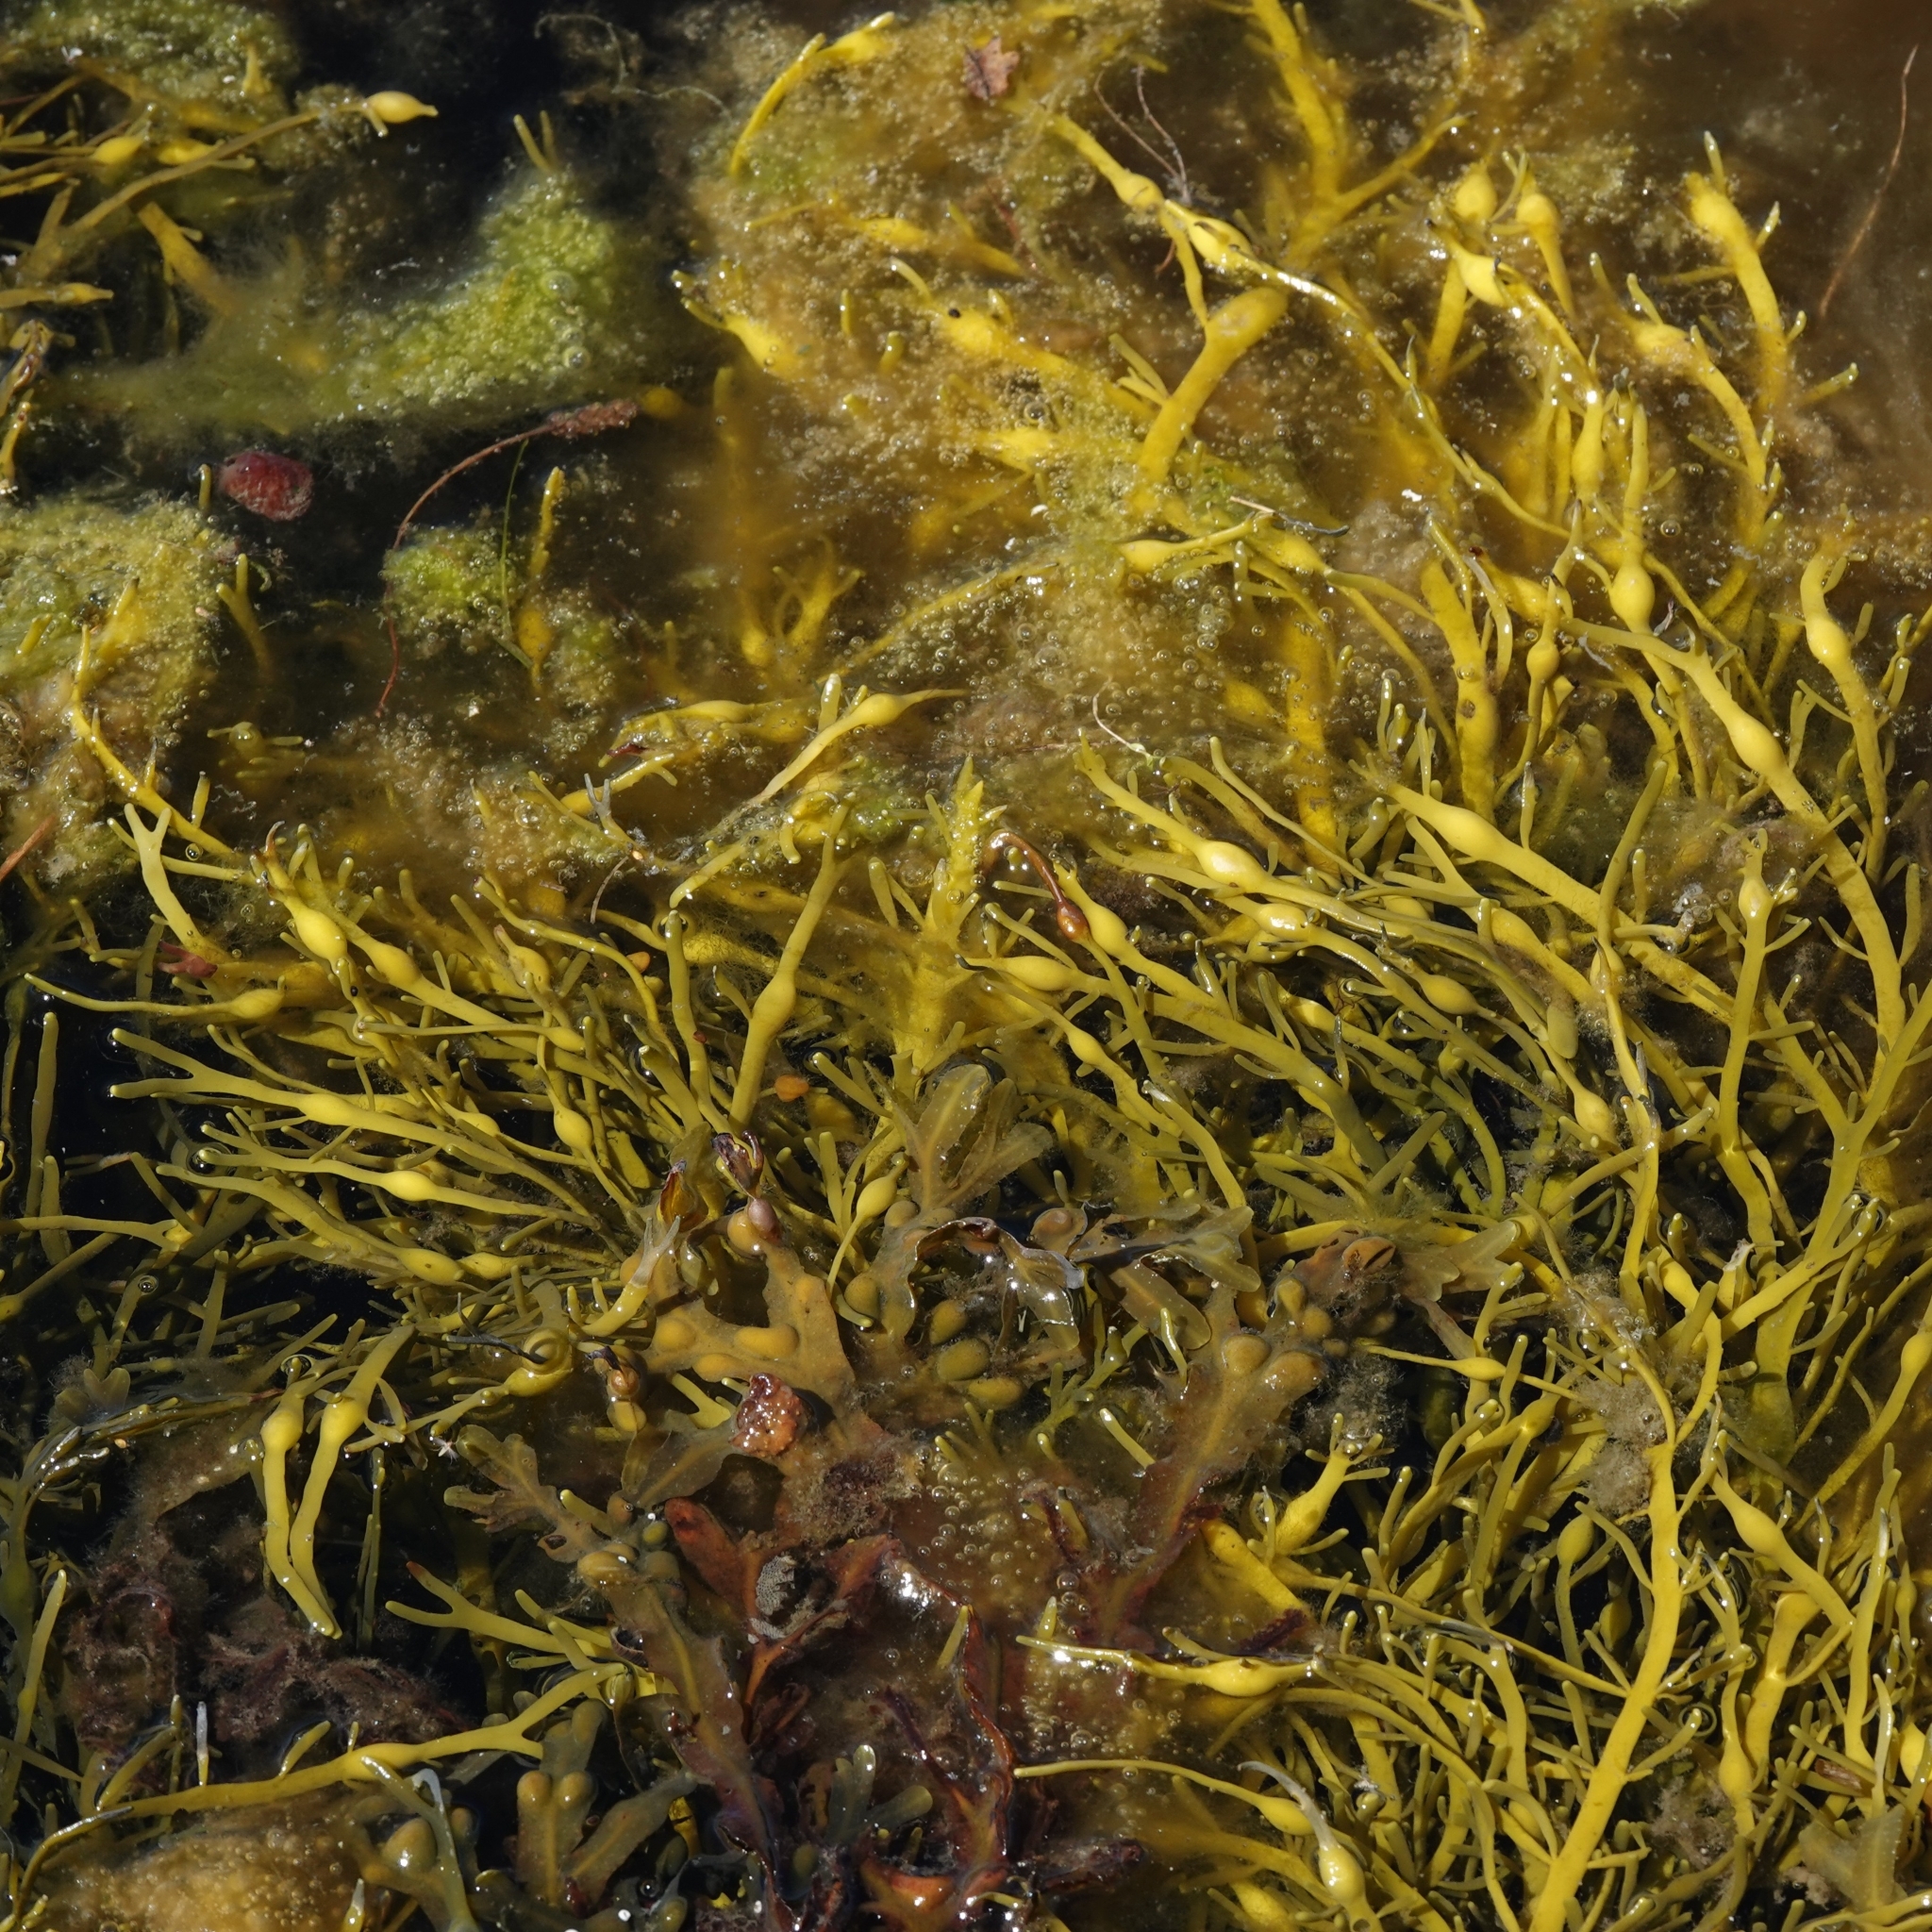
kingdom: Chromista
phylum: Ochrophyta
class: Phaeophyceae
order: Fucales
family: Fucaceae
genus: Ascophyllum
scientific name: Ascophyllum nodosum
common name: Knotted wrack
